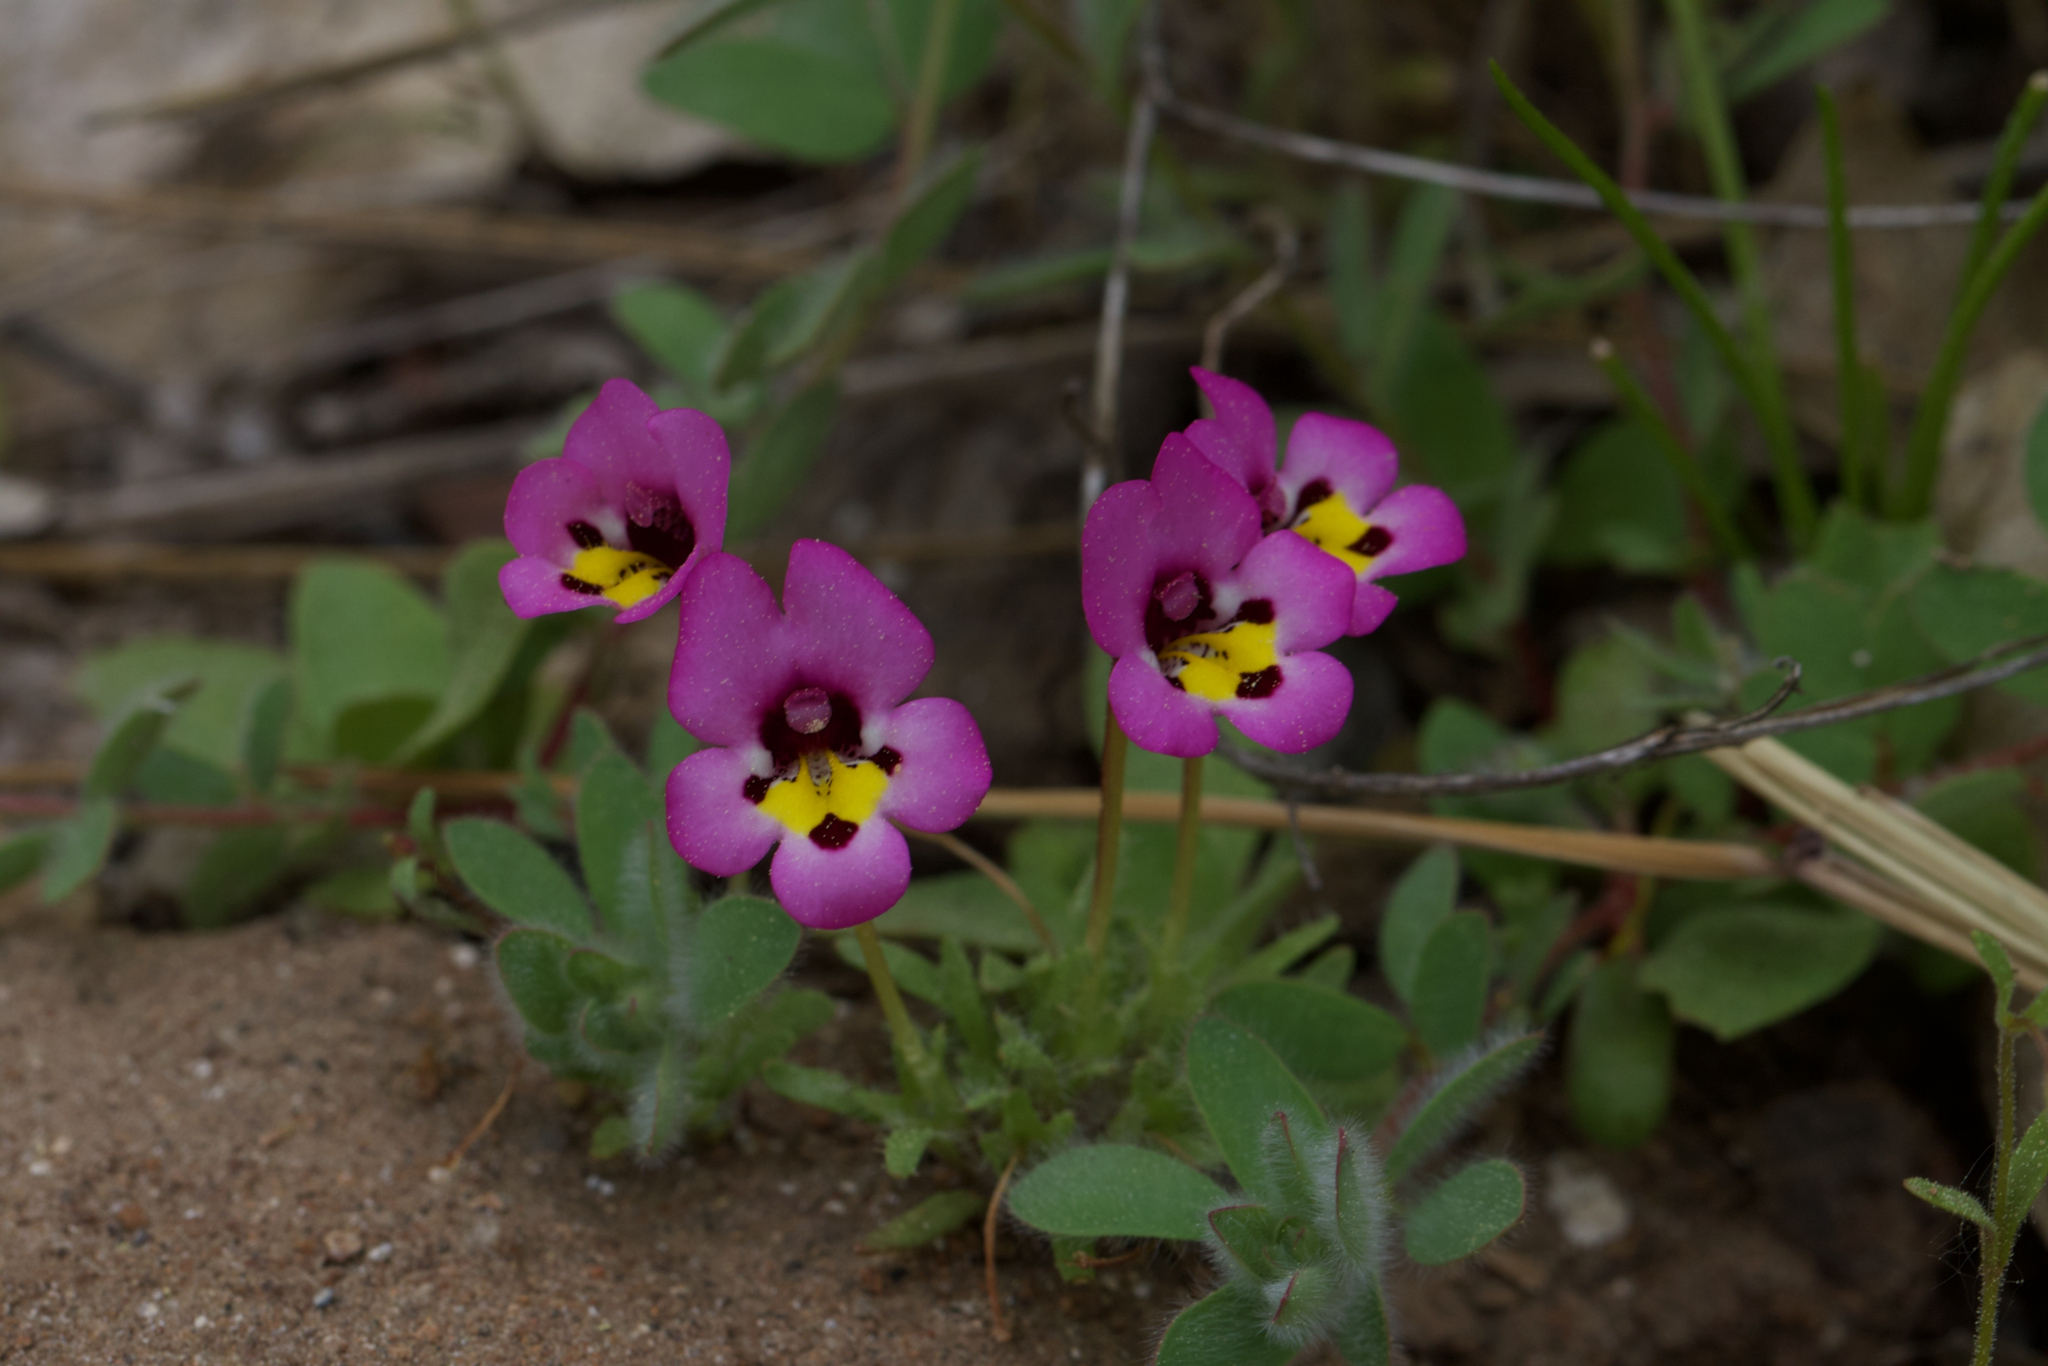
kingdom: Plantae
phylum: Tracheophyta
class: Magnoliopsida
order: Lamiales
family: Phrymaceae
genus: Diplacus
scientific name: Diplacus angustatus
